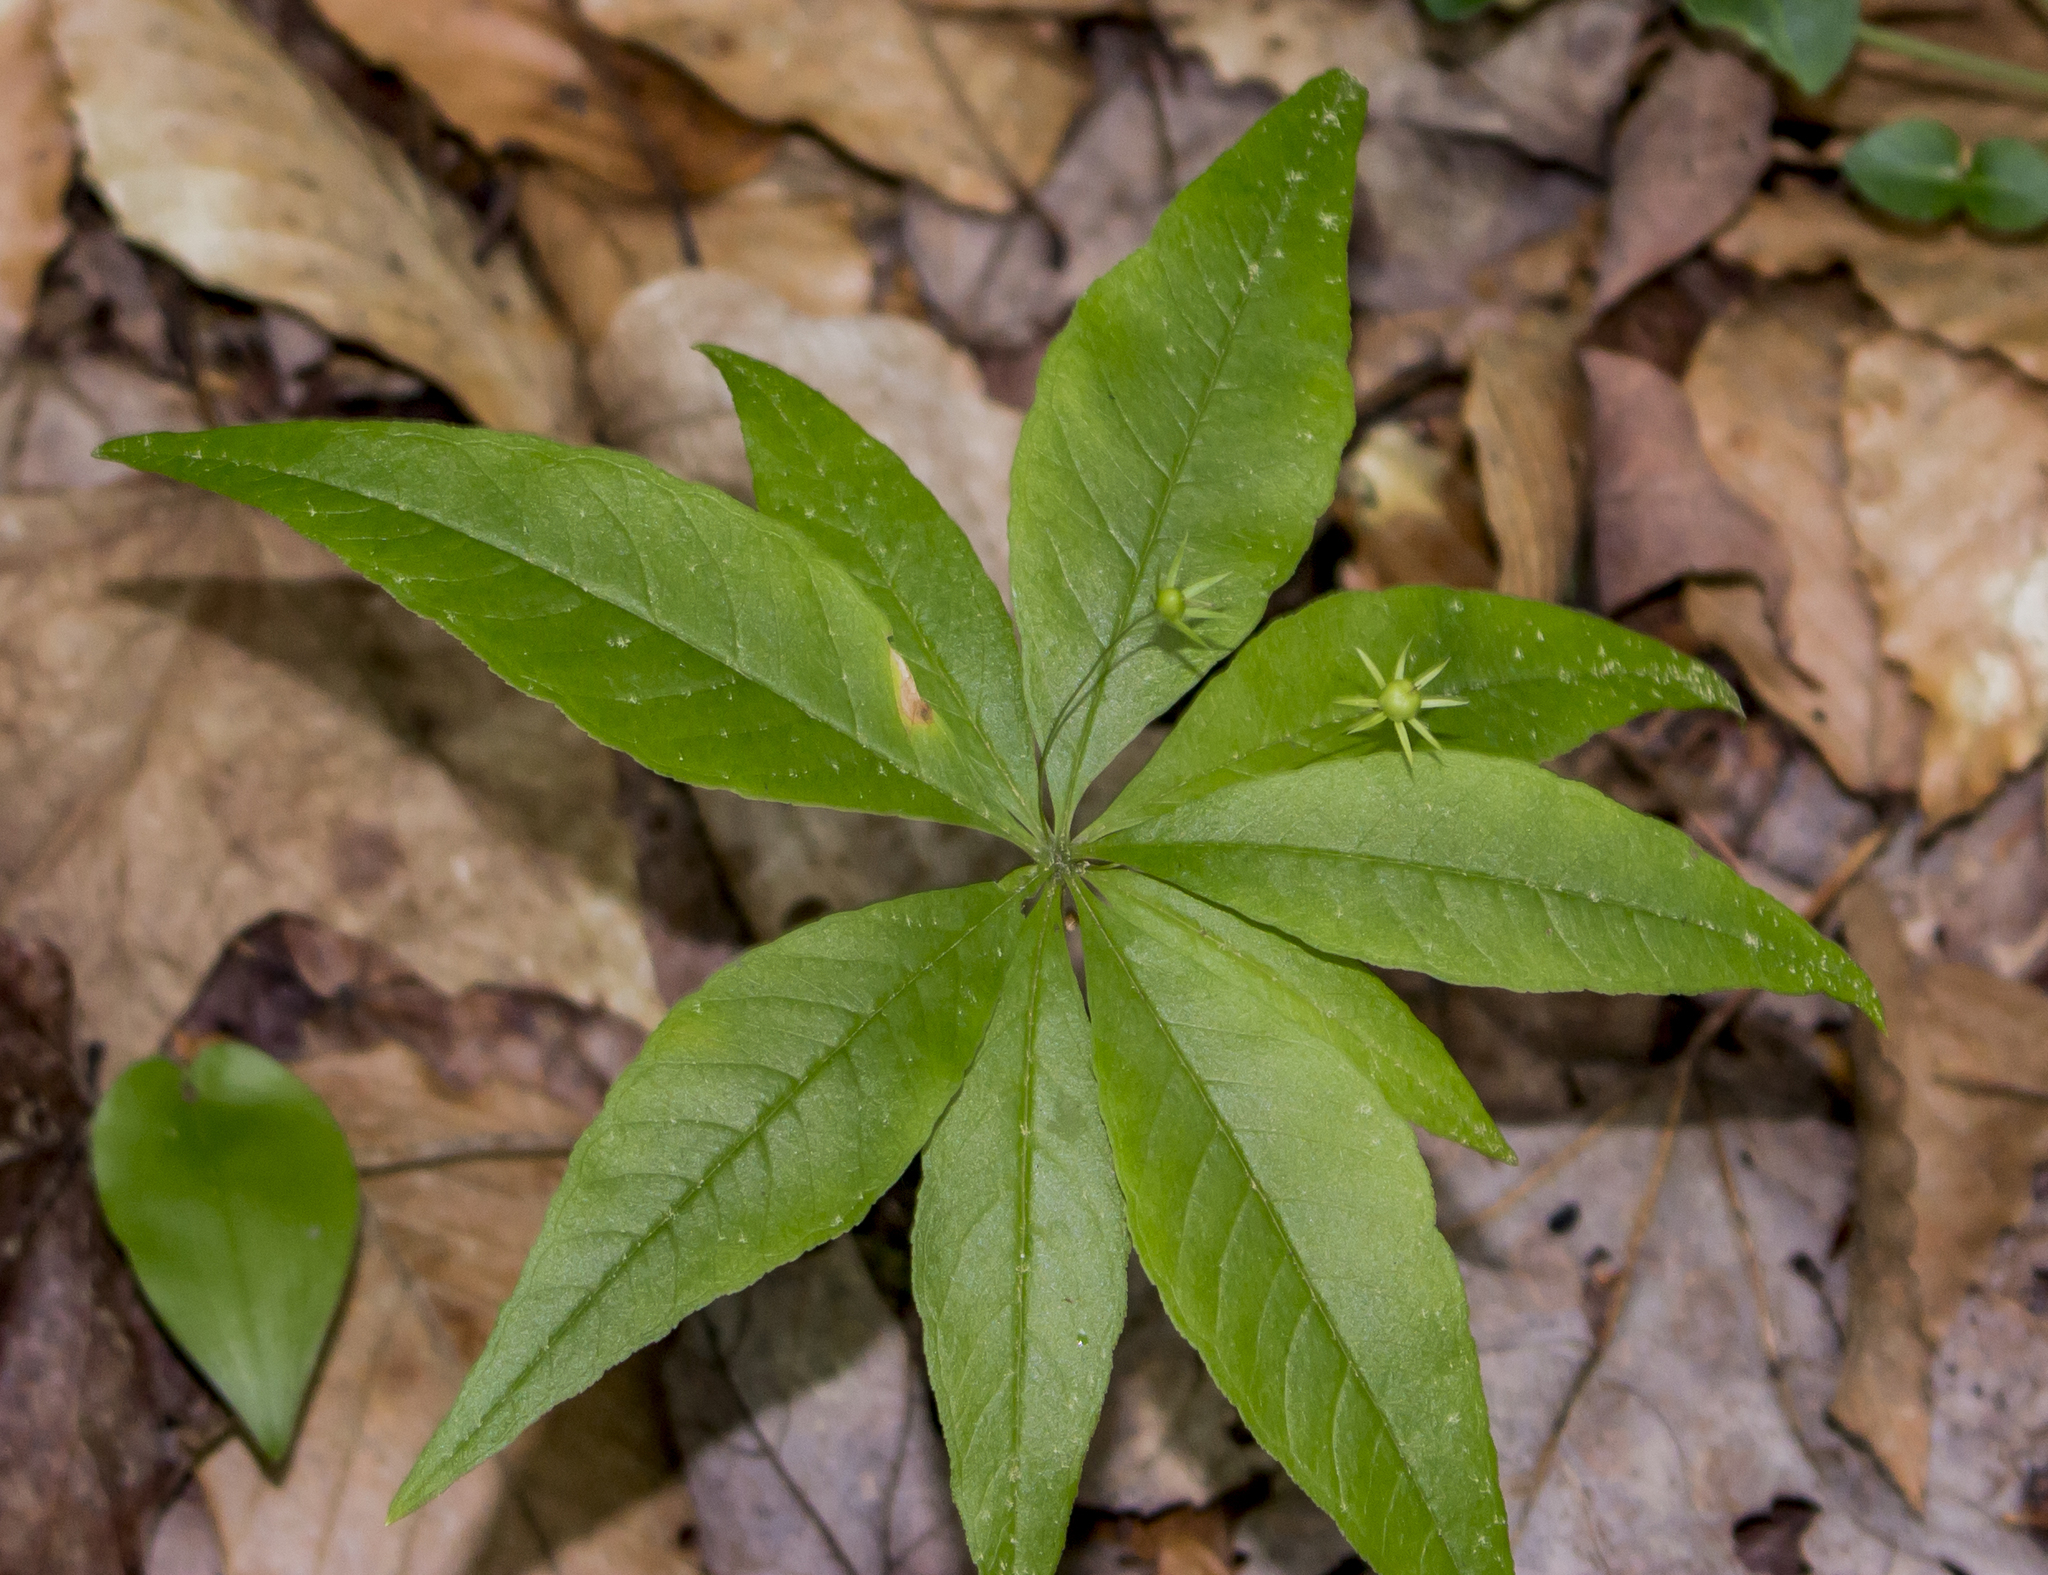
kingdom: Plantae
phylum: Tracheophyta
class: Magnoliopsida
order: Ericales
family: Primulaceae
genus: Lysimachia
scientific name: Lysimachia borealis
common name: American starflower
